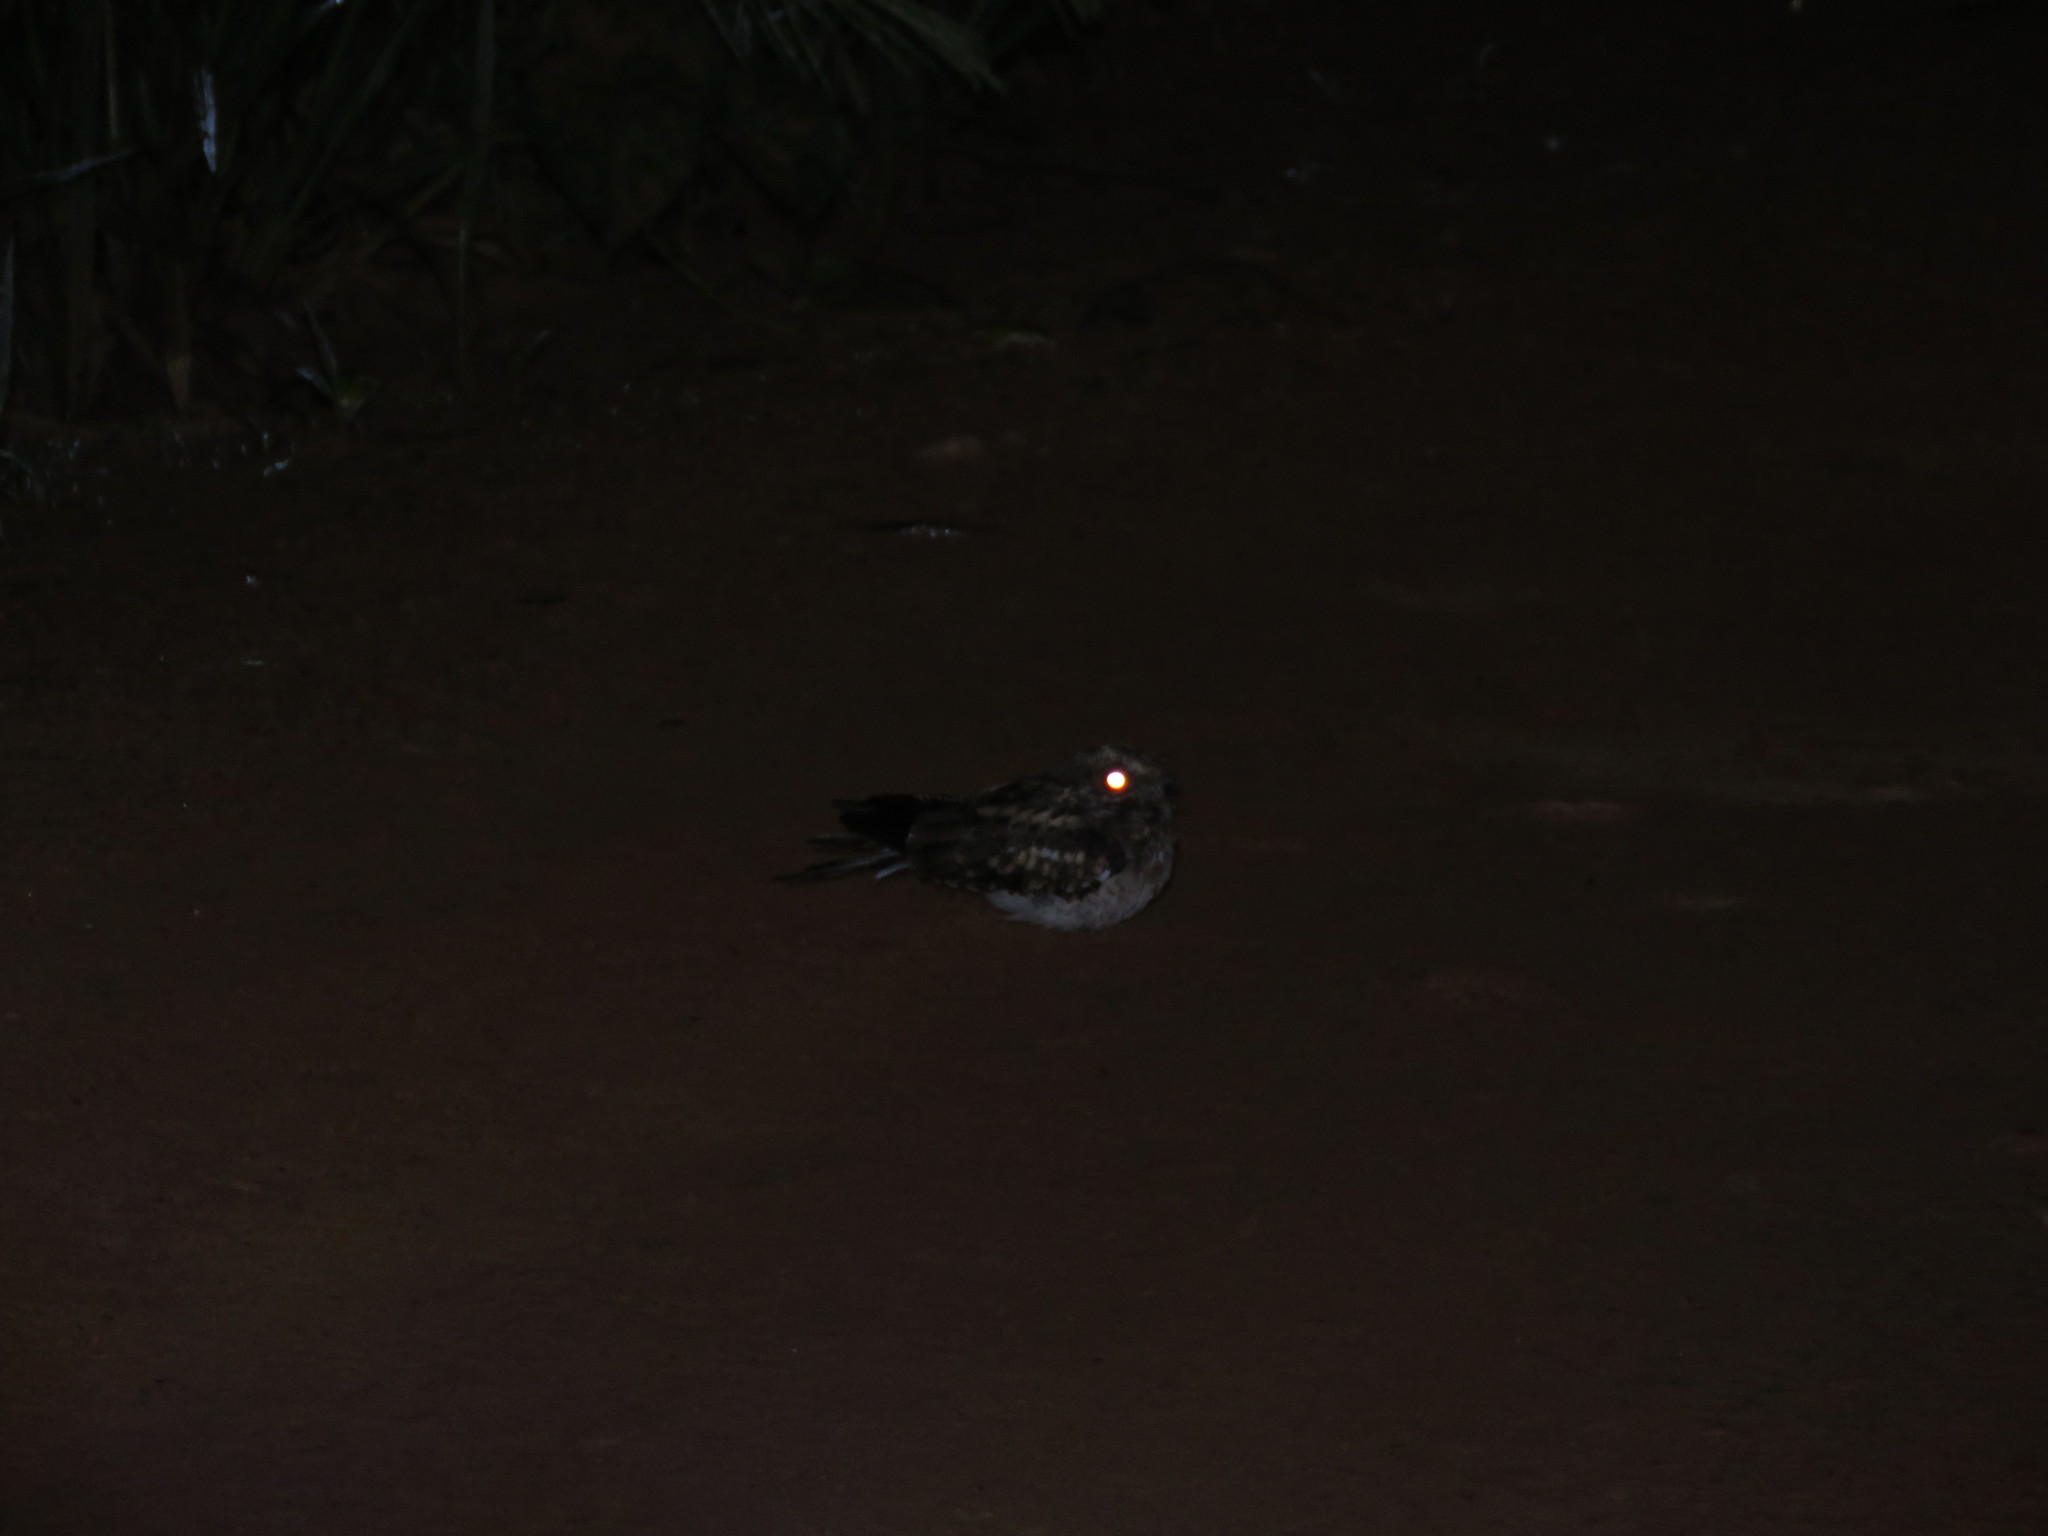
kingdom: Animalia
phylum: Chordata
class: Aves
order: Caprimulgiformes
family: Caprimulgidae
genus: Nyctidromus
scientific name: Nyctidromus albicollis
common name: Pauraque
